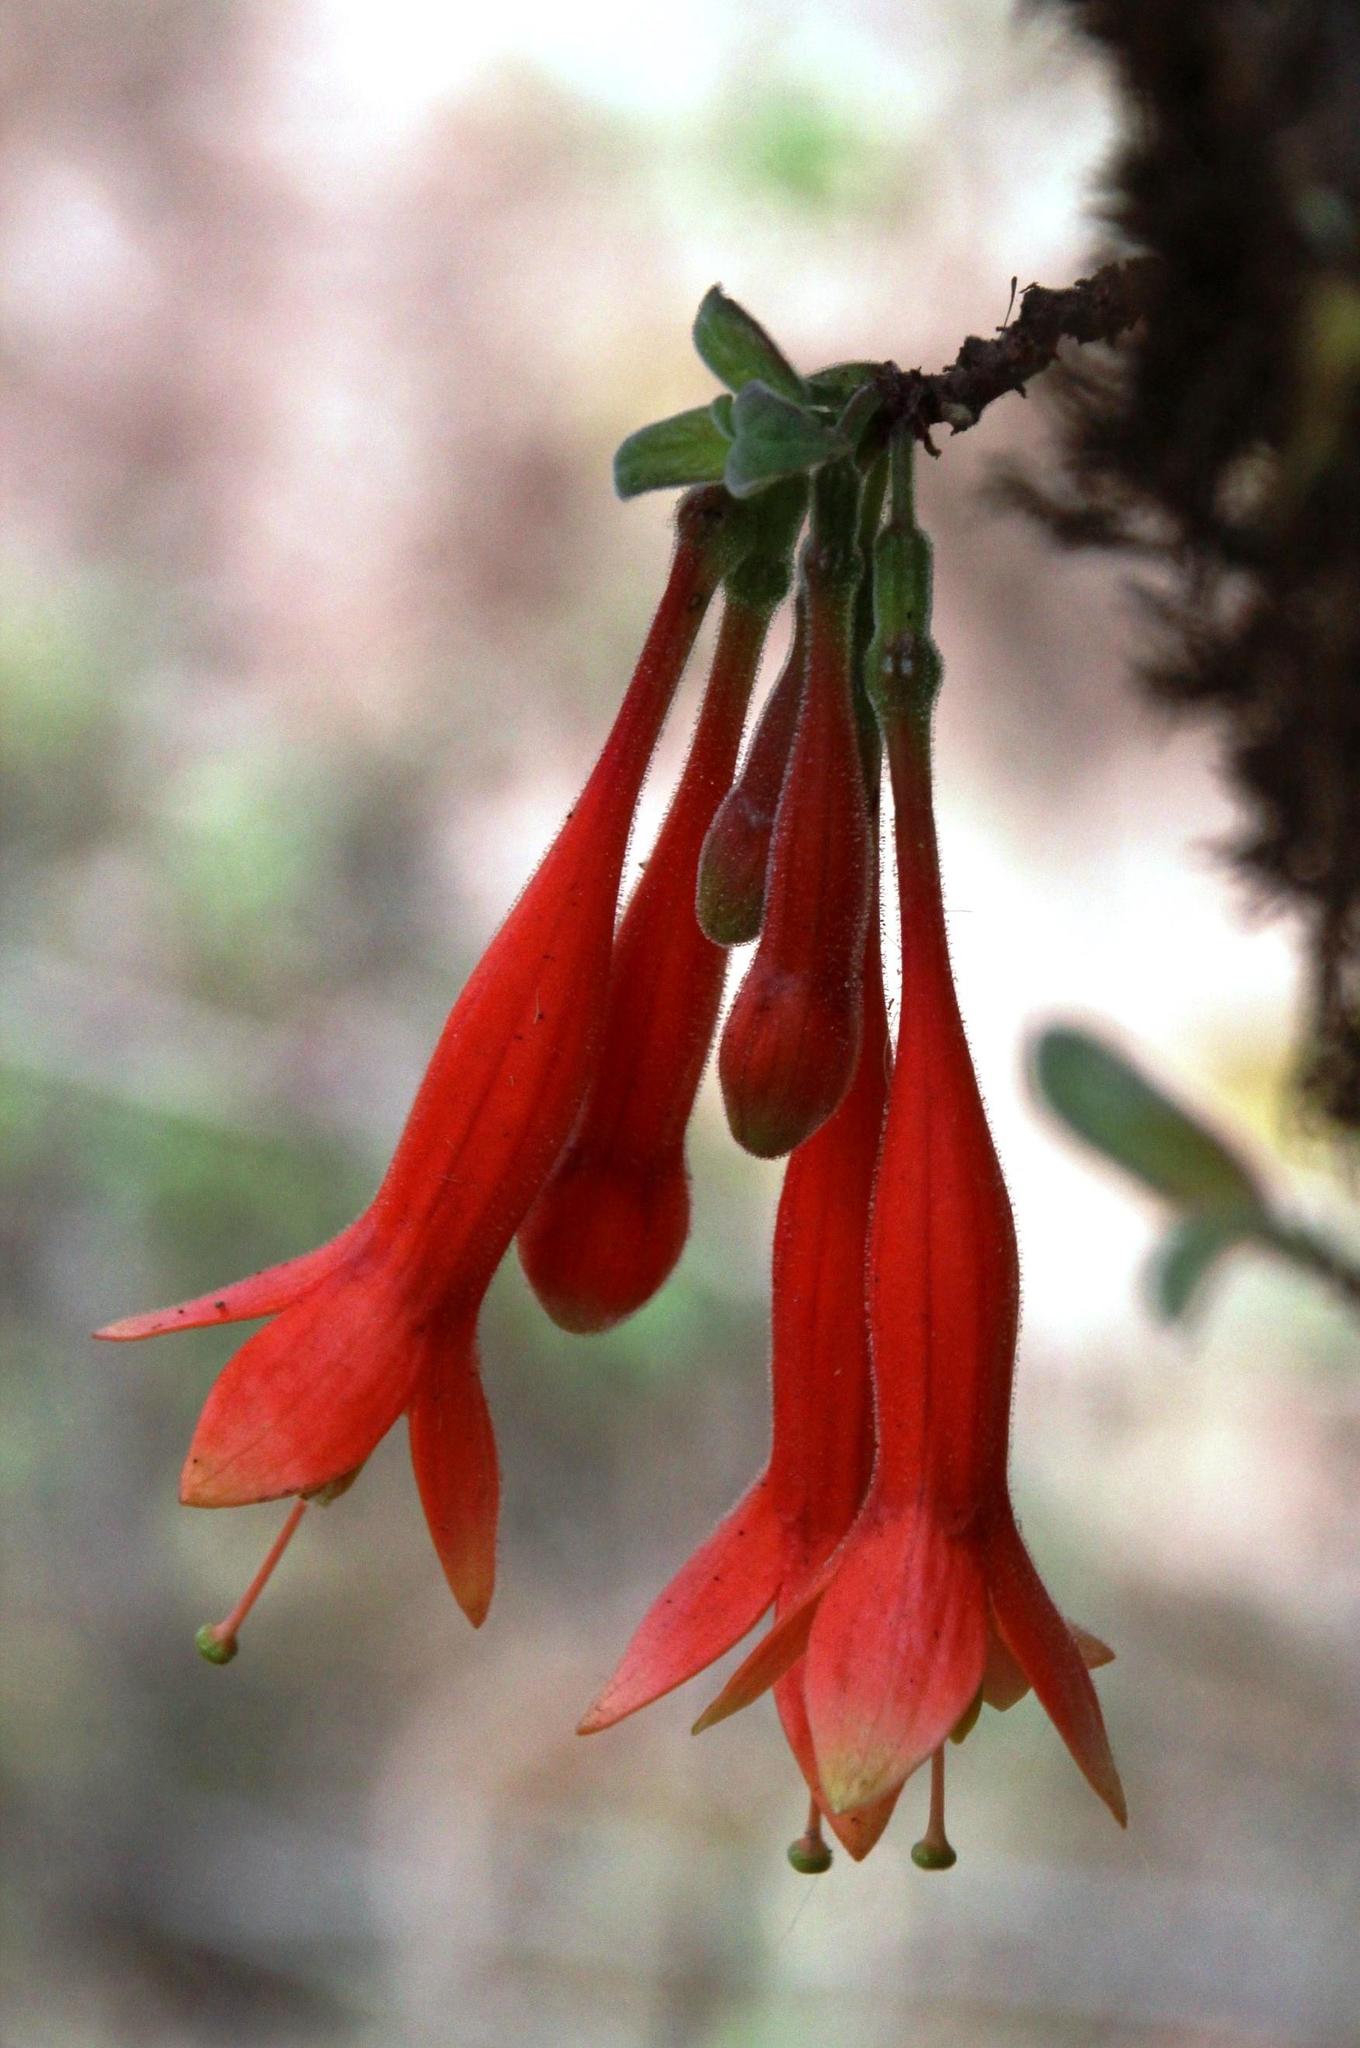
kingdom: Plantae
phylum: Tracheophyta
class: Magnoliopsida
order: Myrtales
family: Onagraceae
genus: Fuchsia
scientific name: Fuchsia apetala
